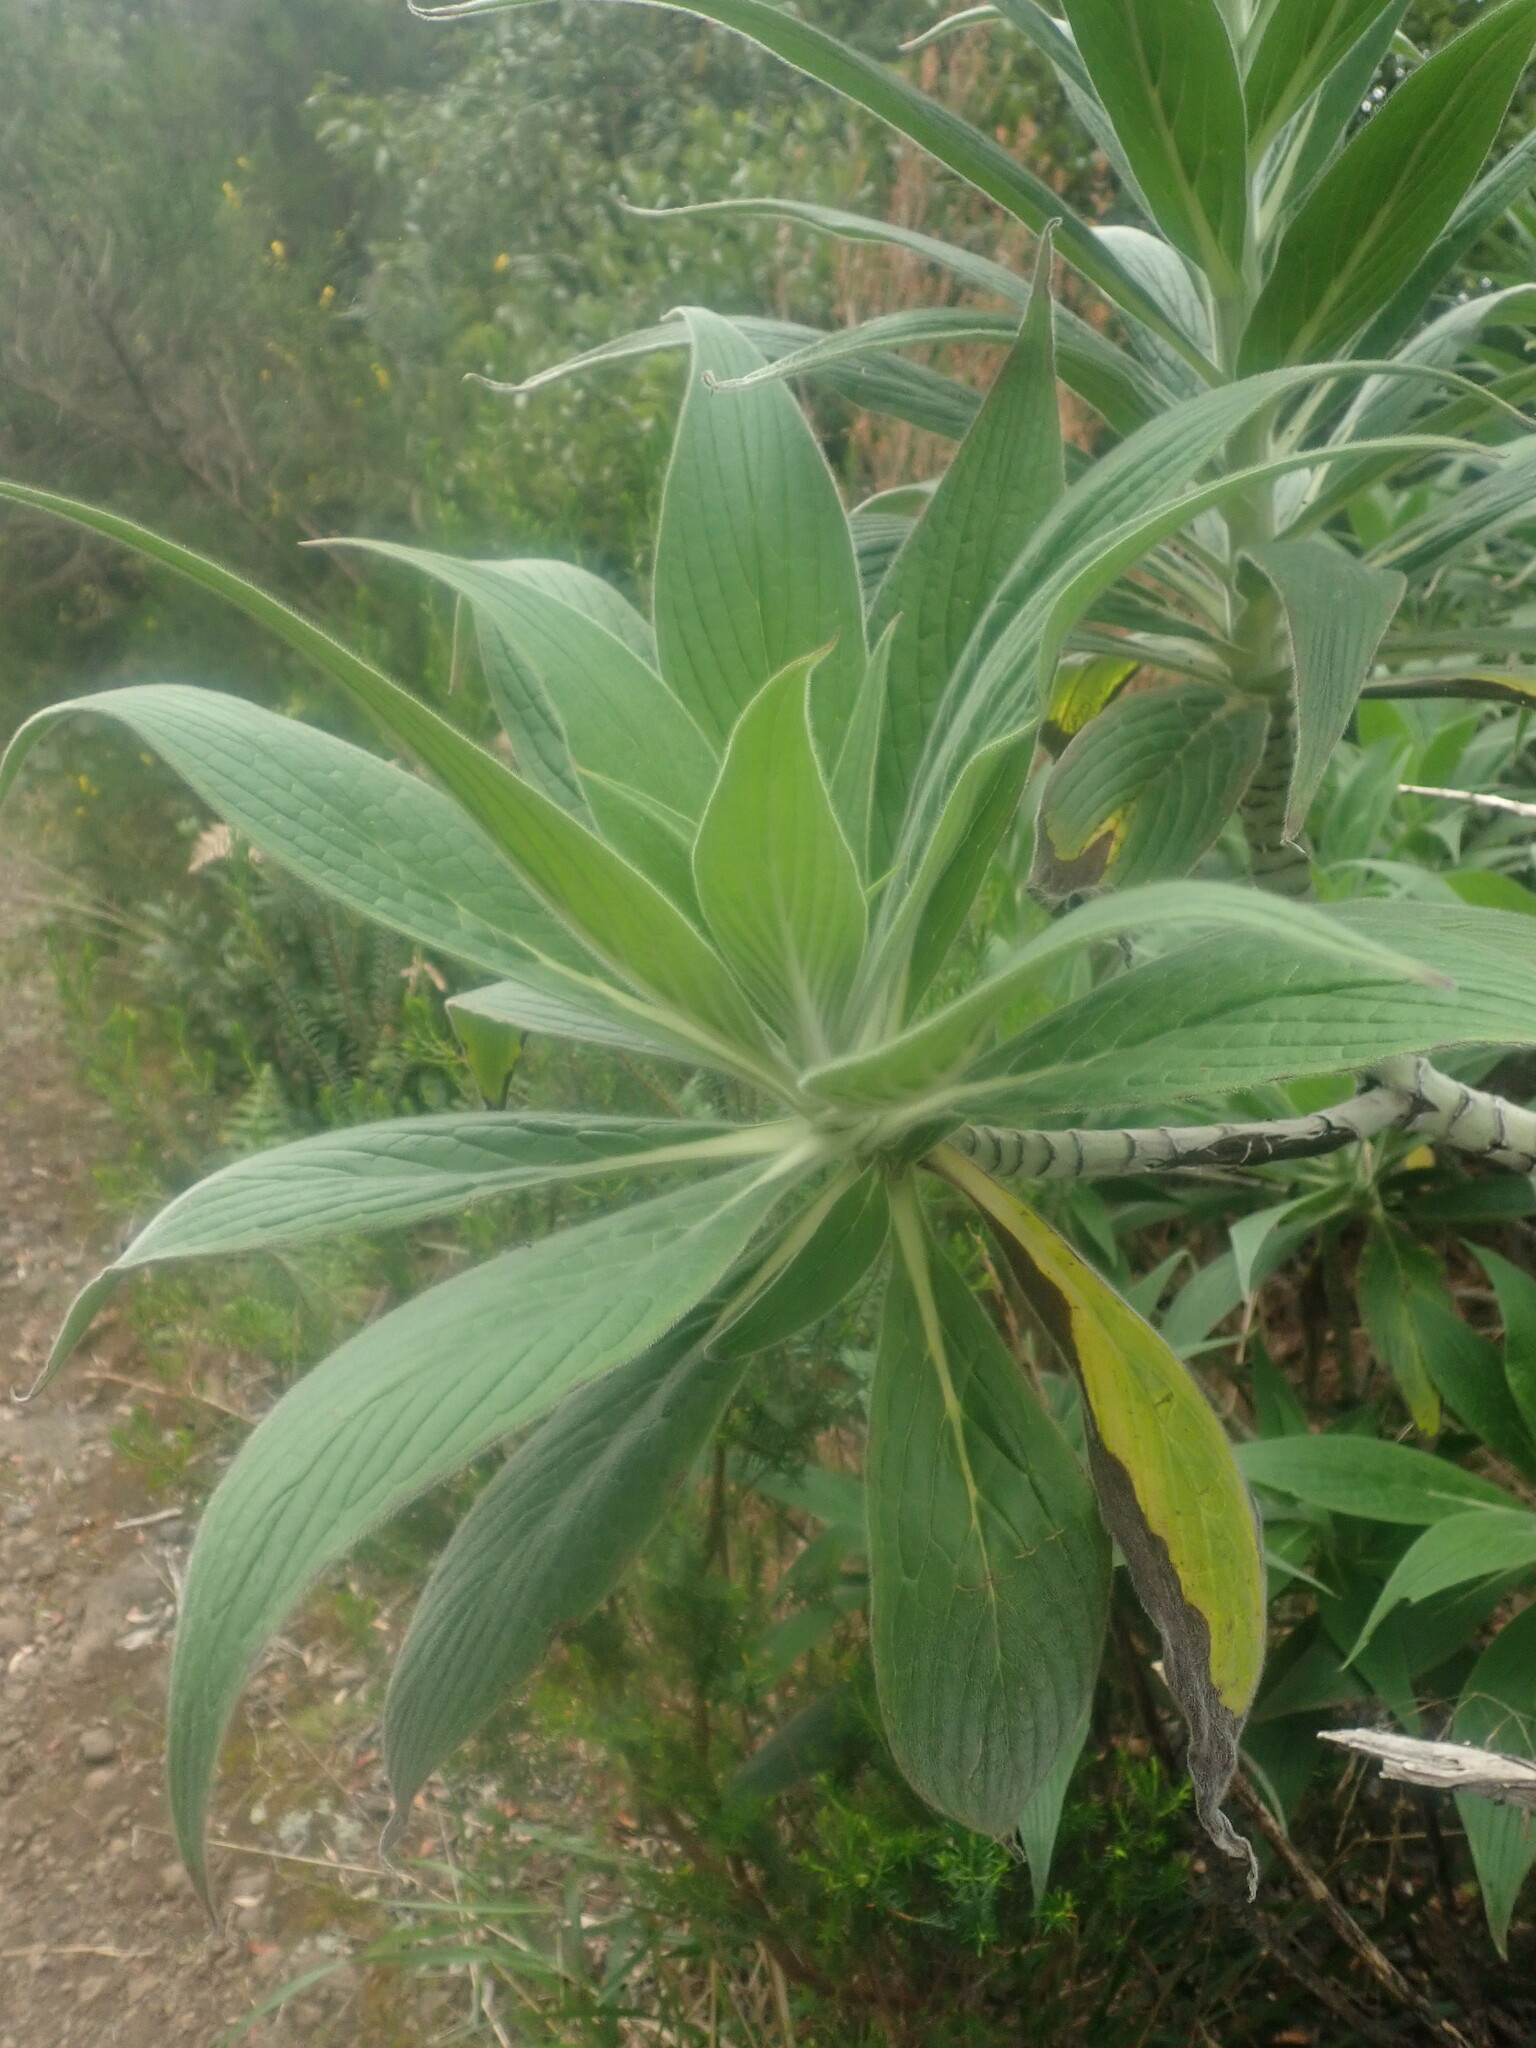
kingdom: Plantae
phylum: Tracheophyta
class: Magnoliopsida
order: Boraginales
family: Boraginaceae
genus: Echium
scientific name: Echium candicans
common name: Pride of madeira
